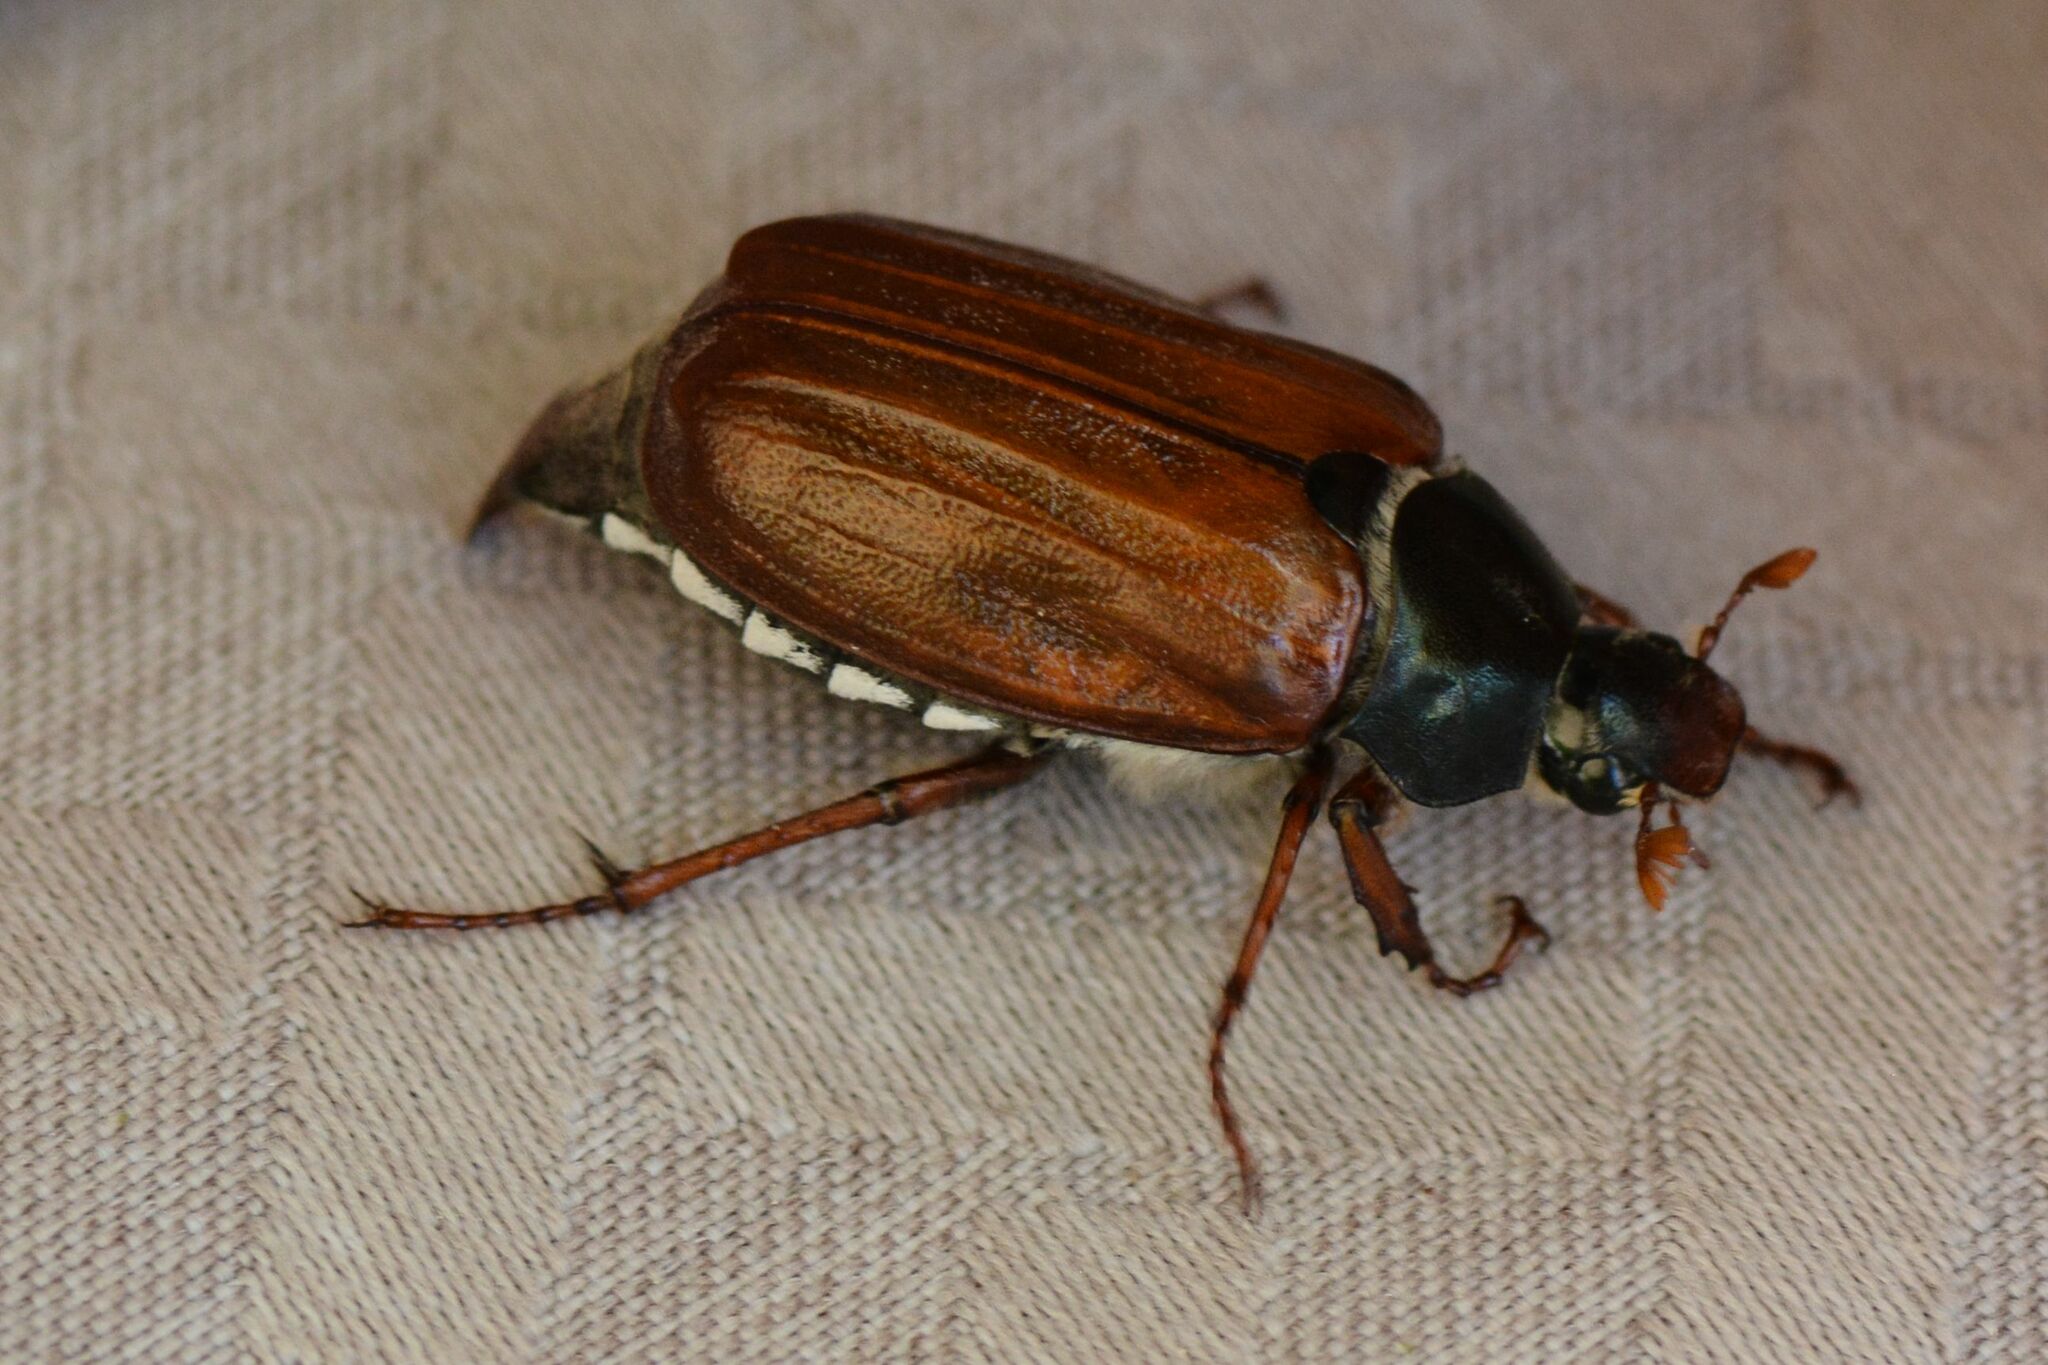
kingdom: Animalia
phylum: Arthropoda
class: Insecta
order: Coleoptera
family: Scarabaeidae
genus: Melolontha
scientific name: Melolontha melolontha
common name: Cockchafer maybeetle
